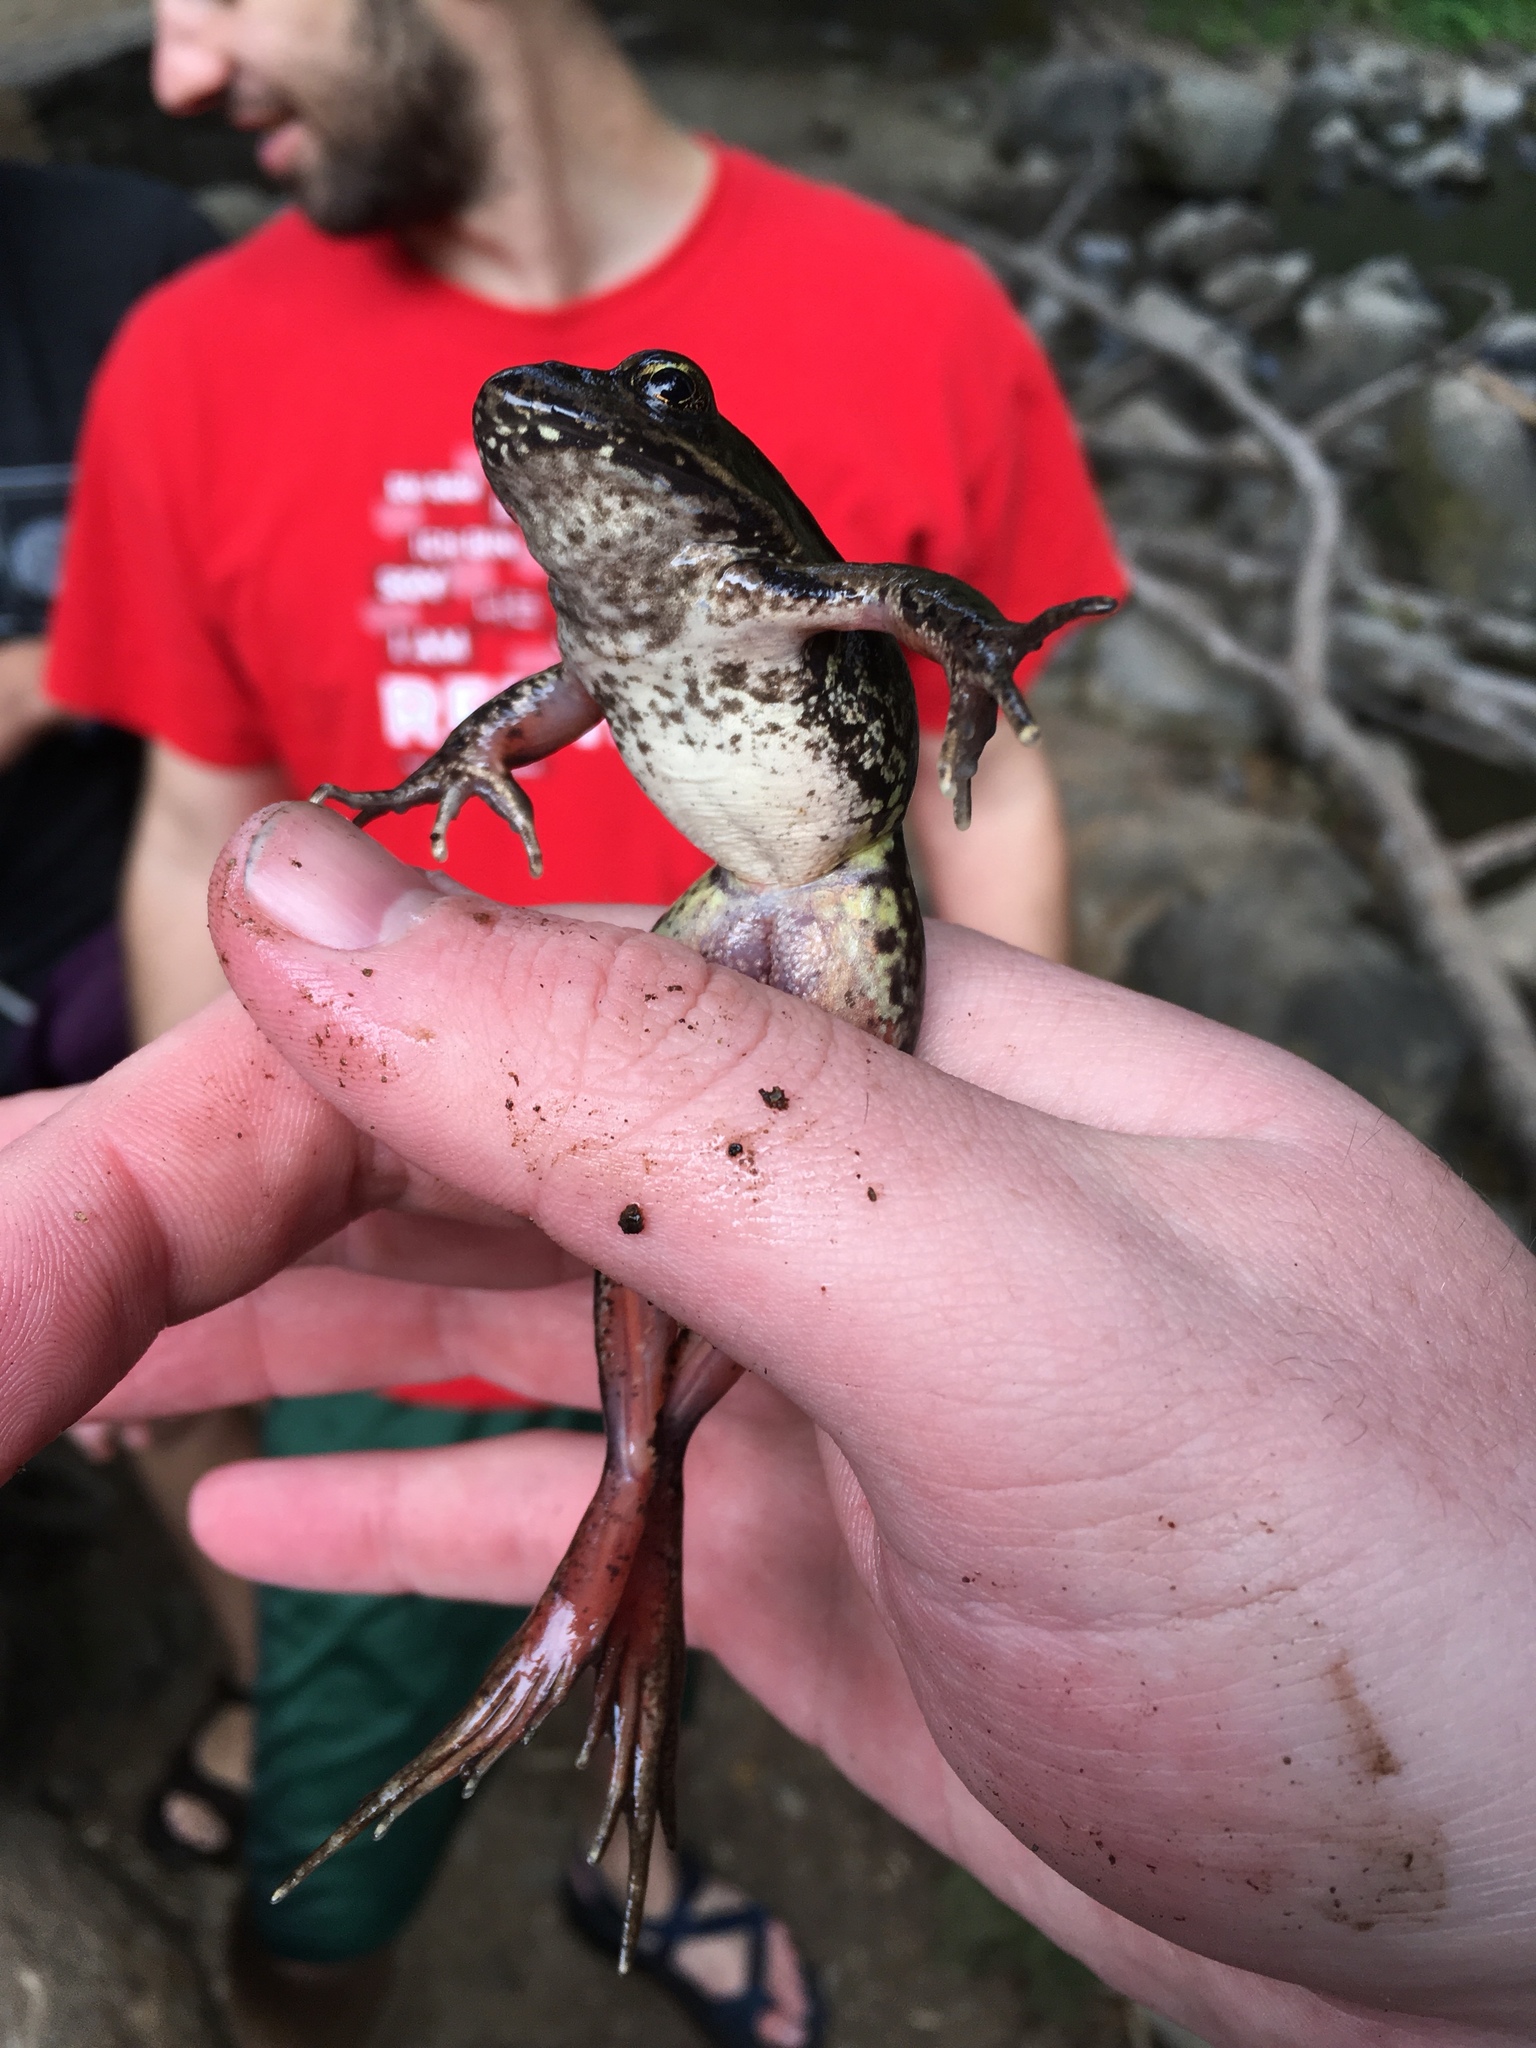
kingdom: Animalia
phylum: Chordata
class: Amphibia
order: Anura
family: Ranidae
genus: Rana
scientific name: Rana aurora
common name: Red-legged frog
